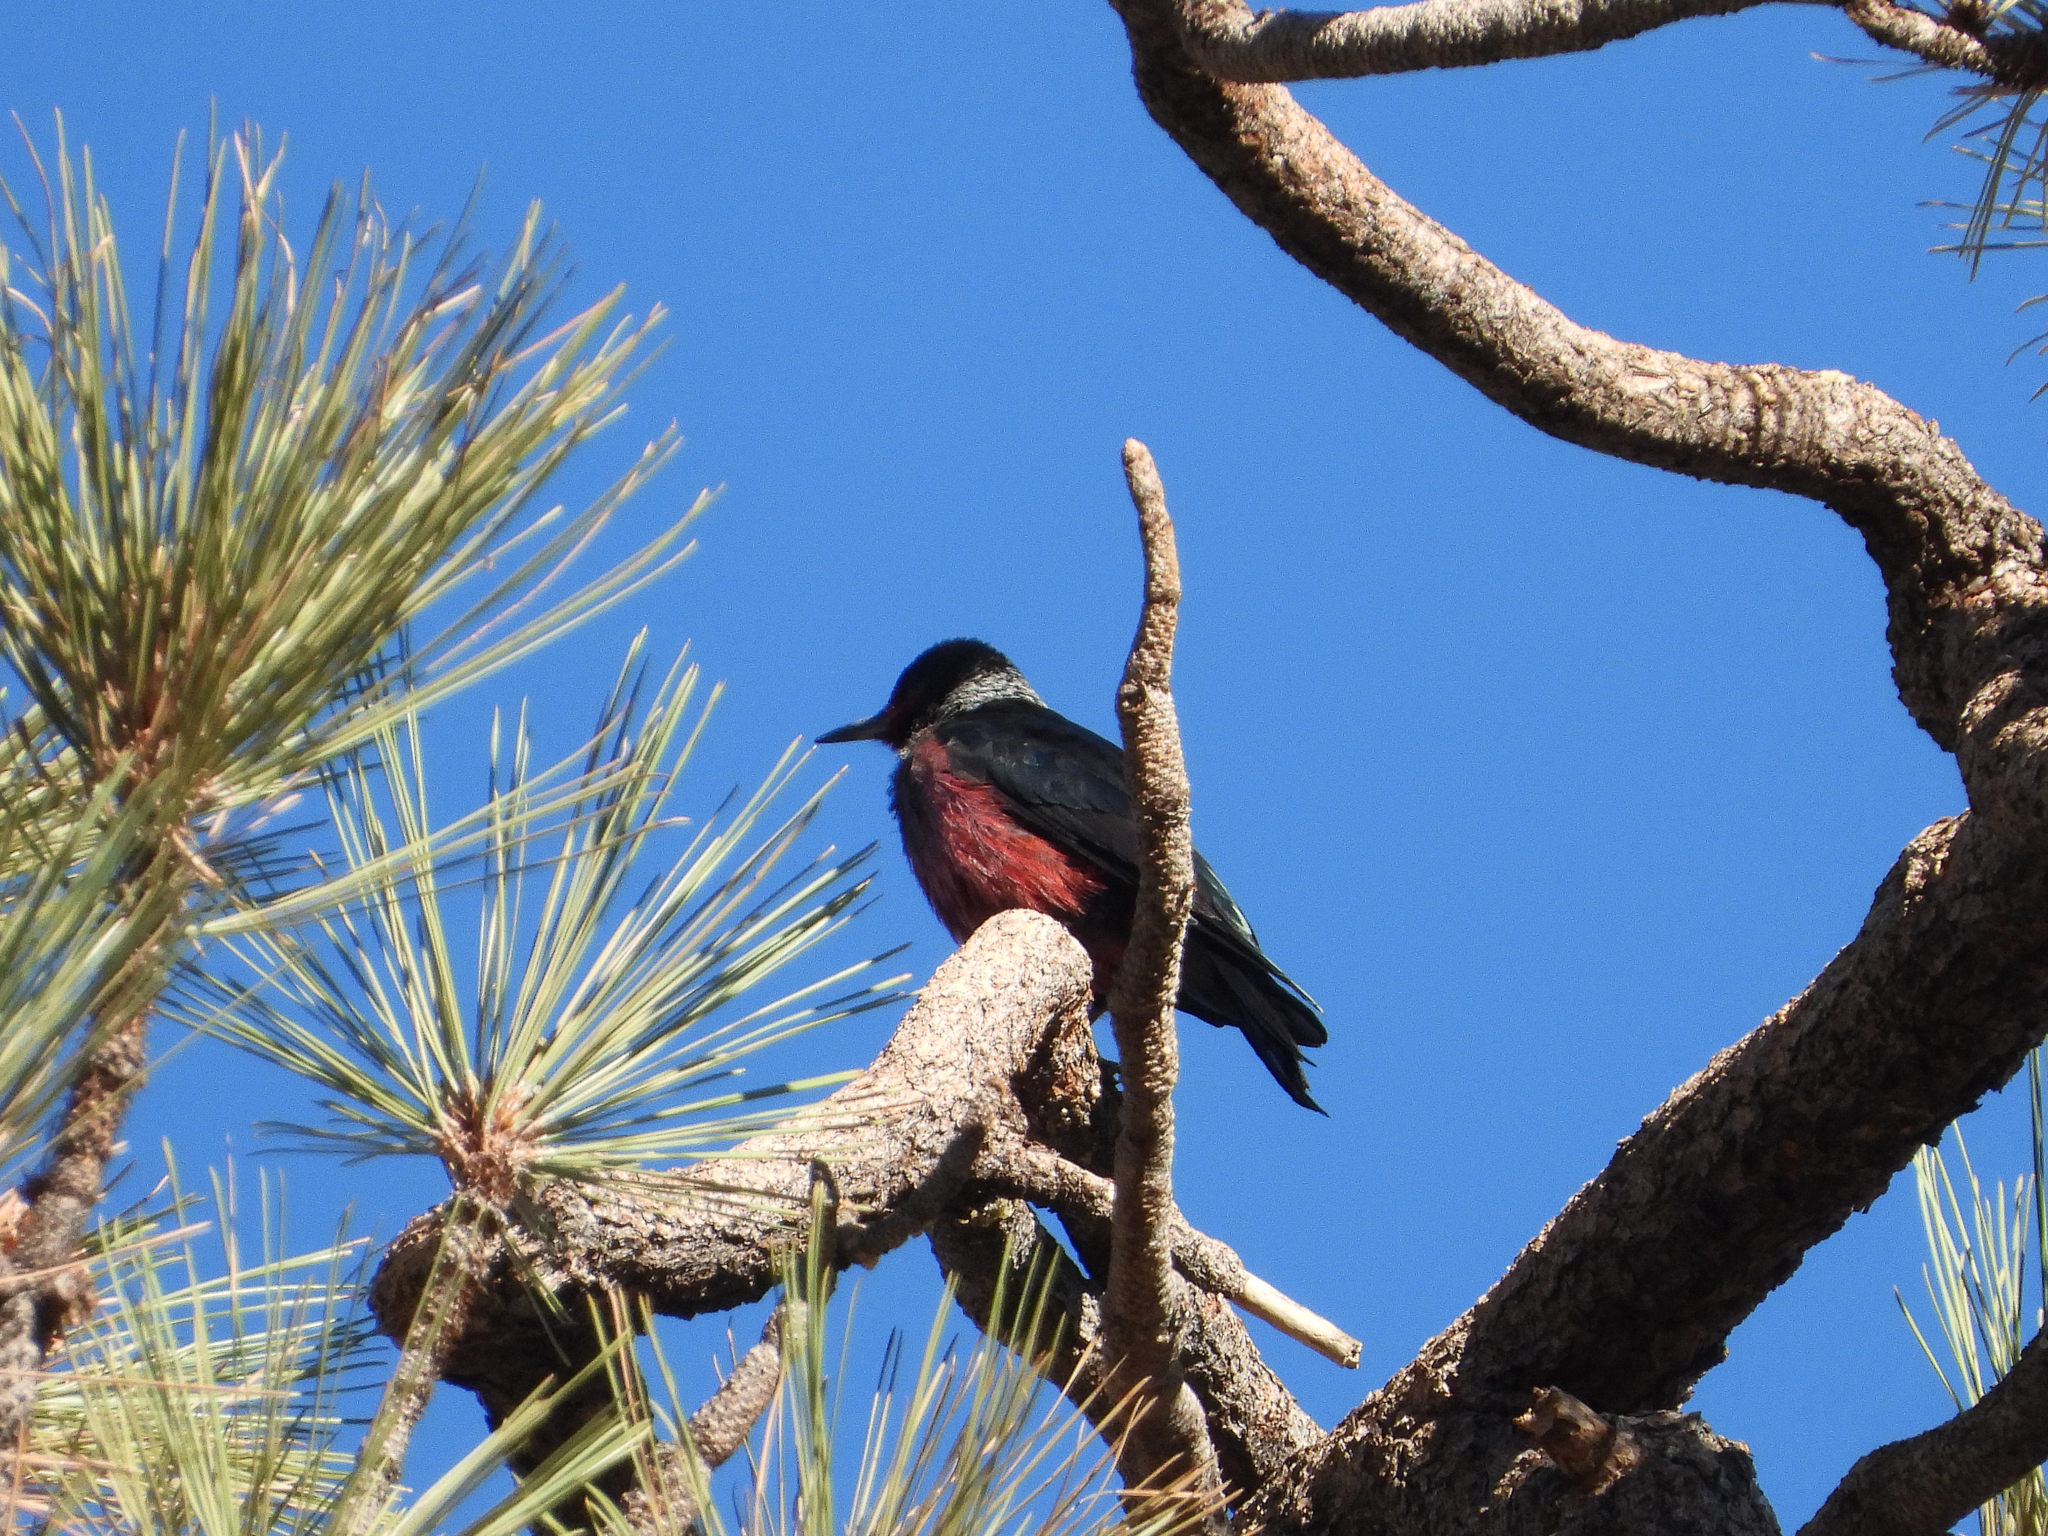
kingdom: Animalia
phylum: Chordata
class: Aves
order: Piciformes
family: Picidae
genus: Melanerpes
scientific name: Melanerpes lewis
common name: Lewis's woodpecker
